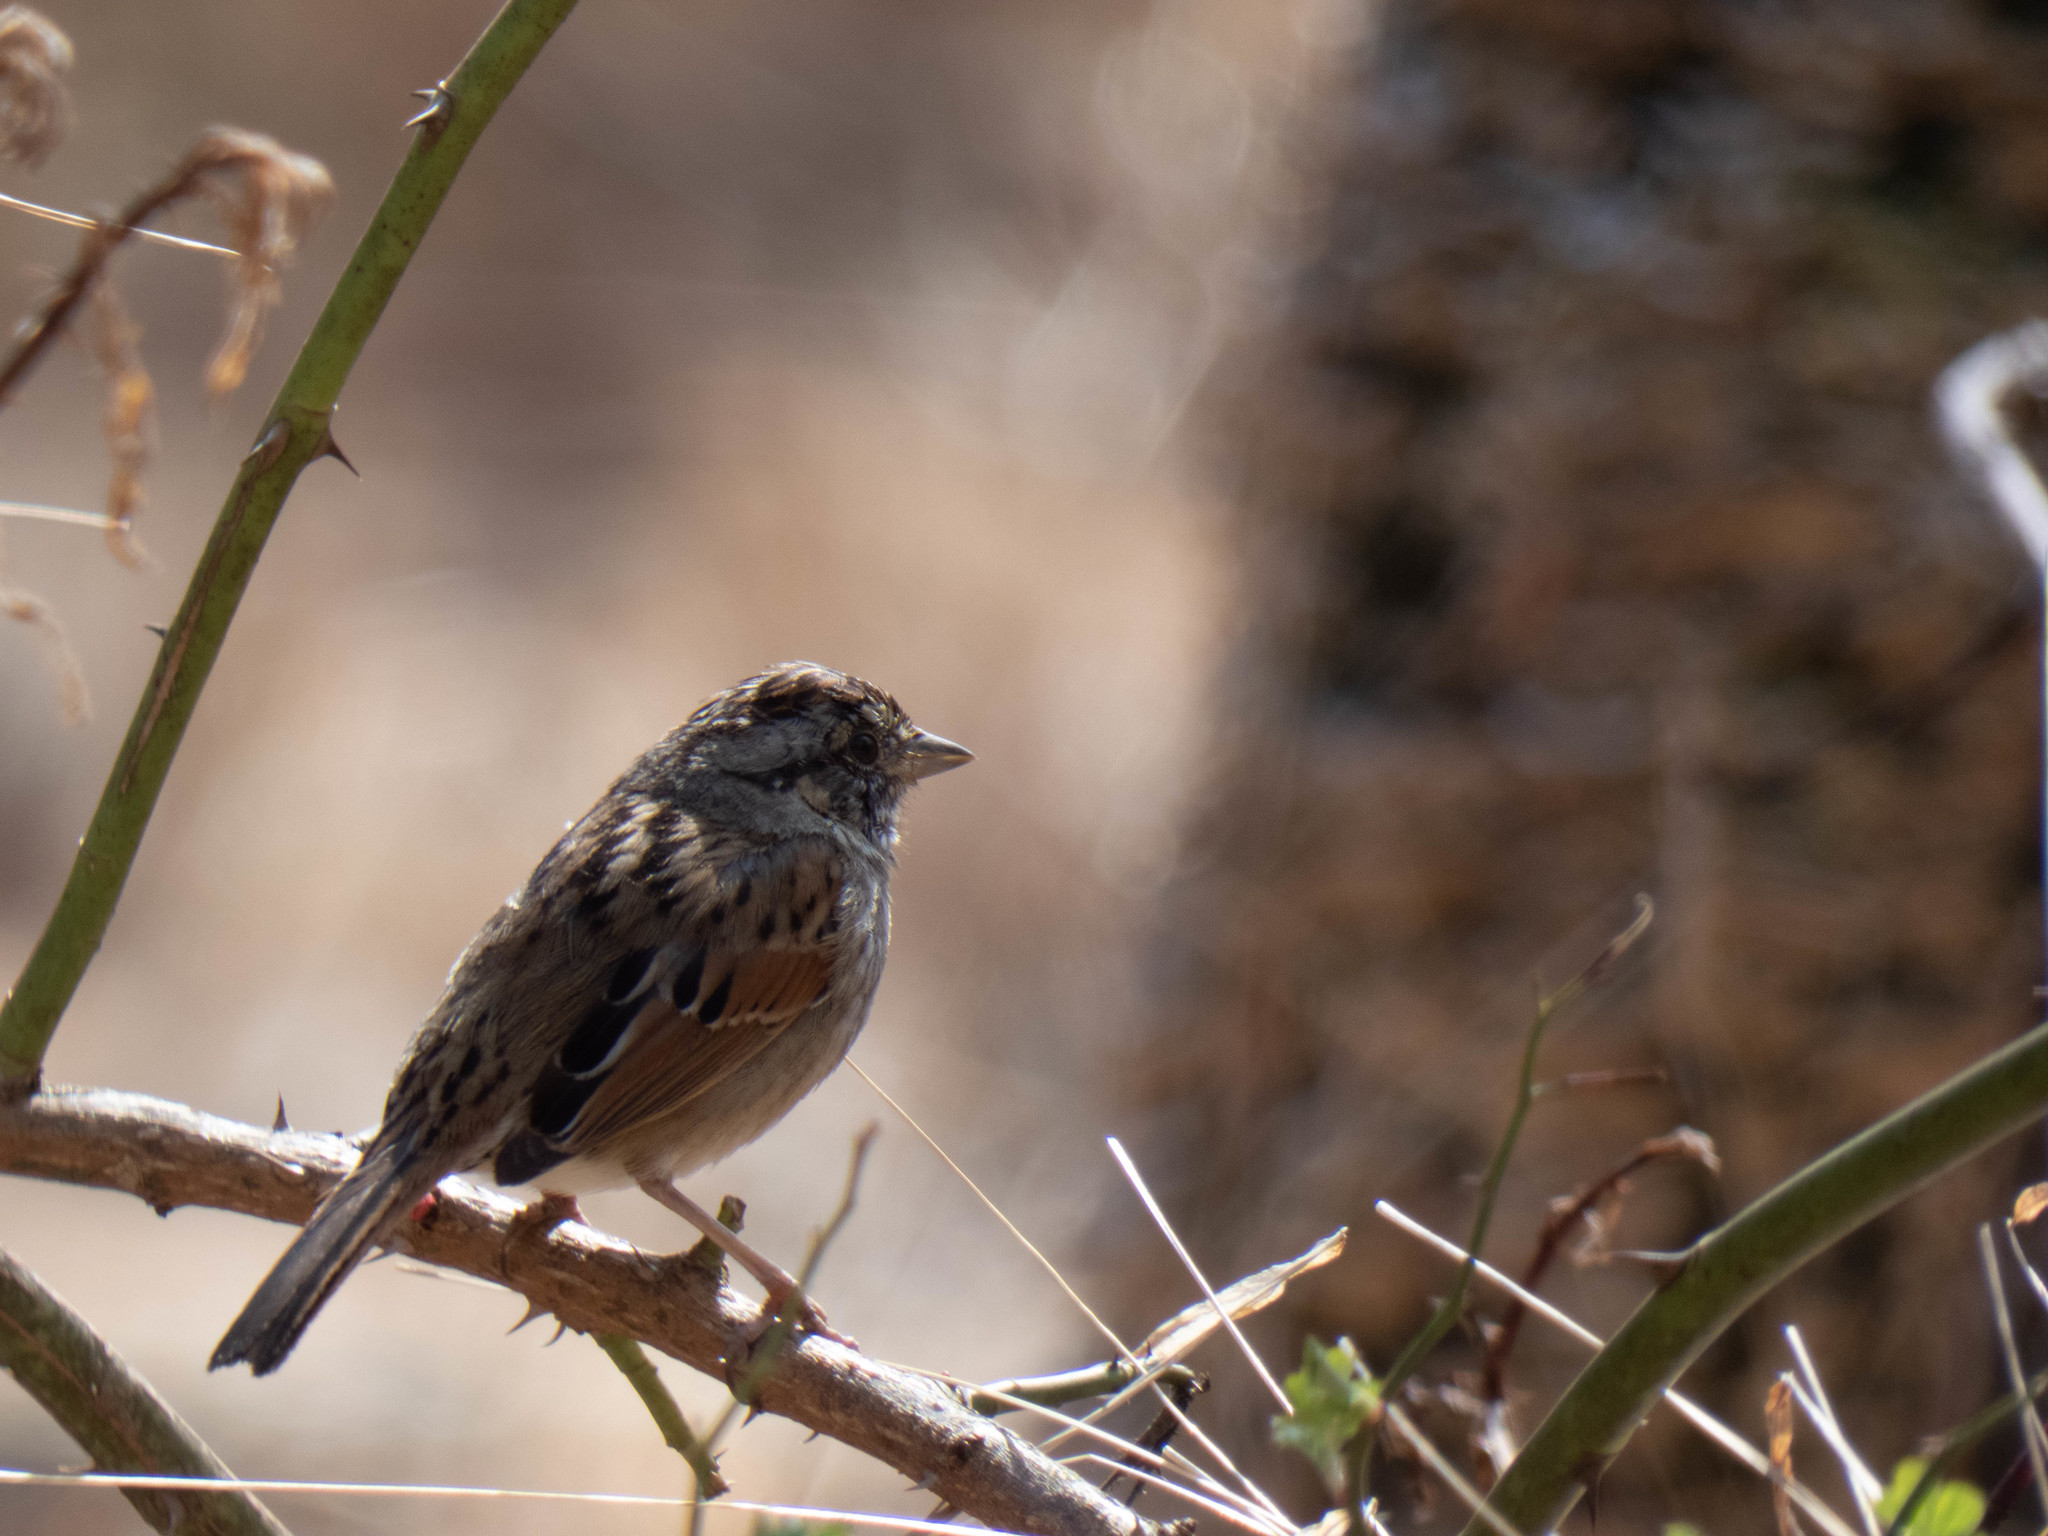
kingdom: Animalia
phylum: Chordata
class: Aves
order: Passeriformes
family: Passerellidae
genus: Melospiza
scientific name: Melospiza georgiana
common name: Swamp sparrow
